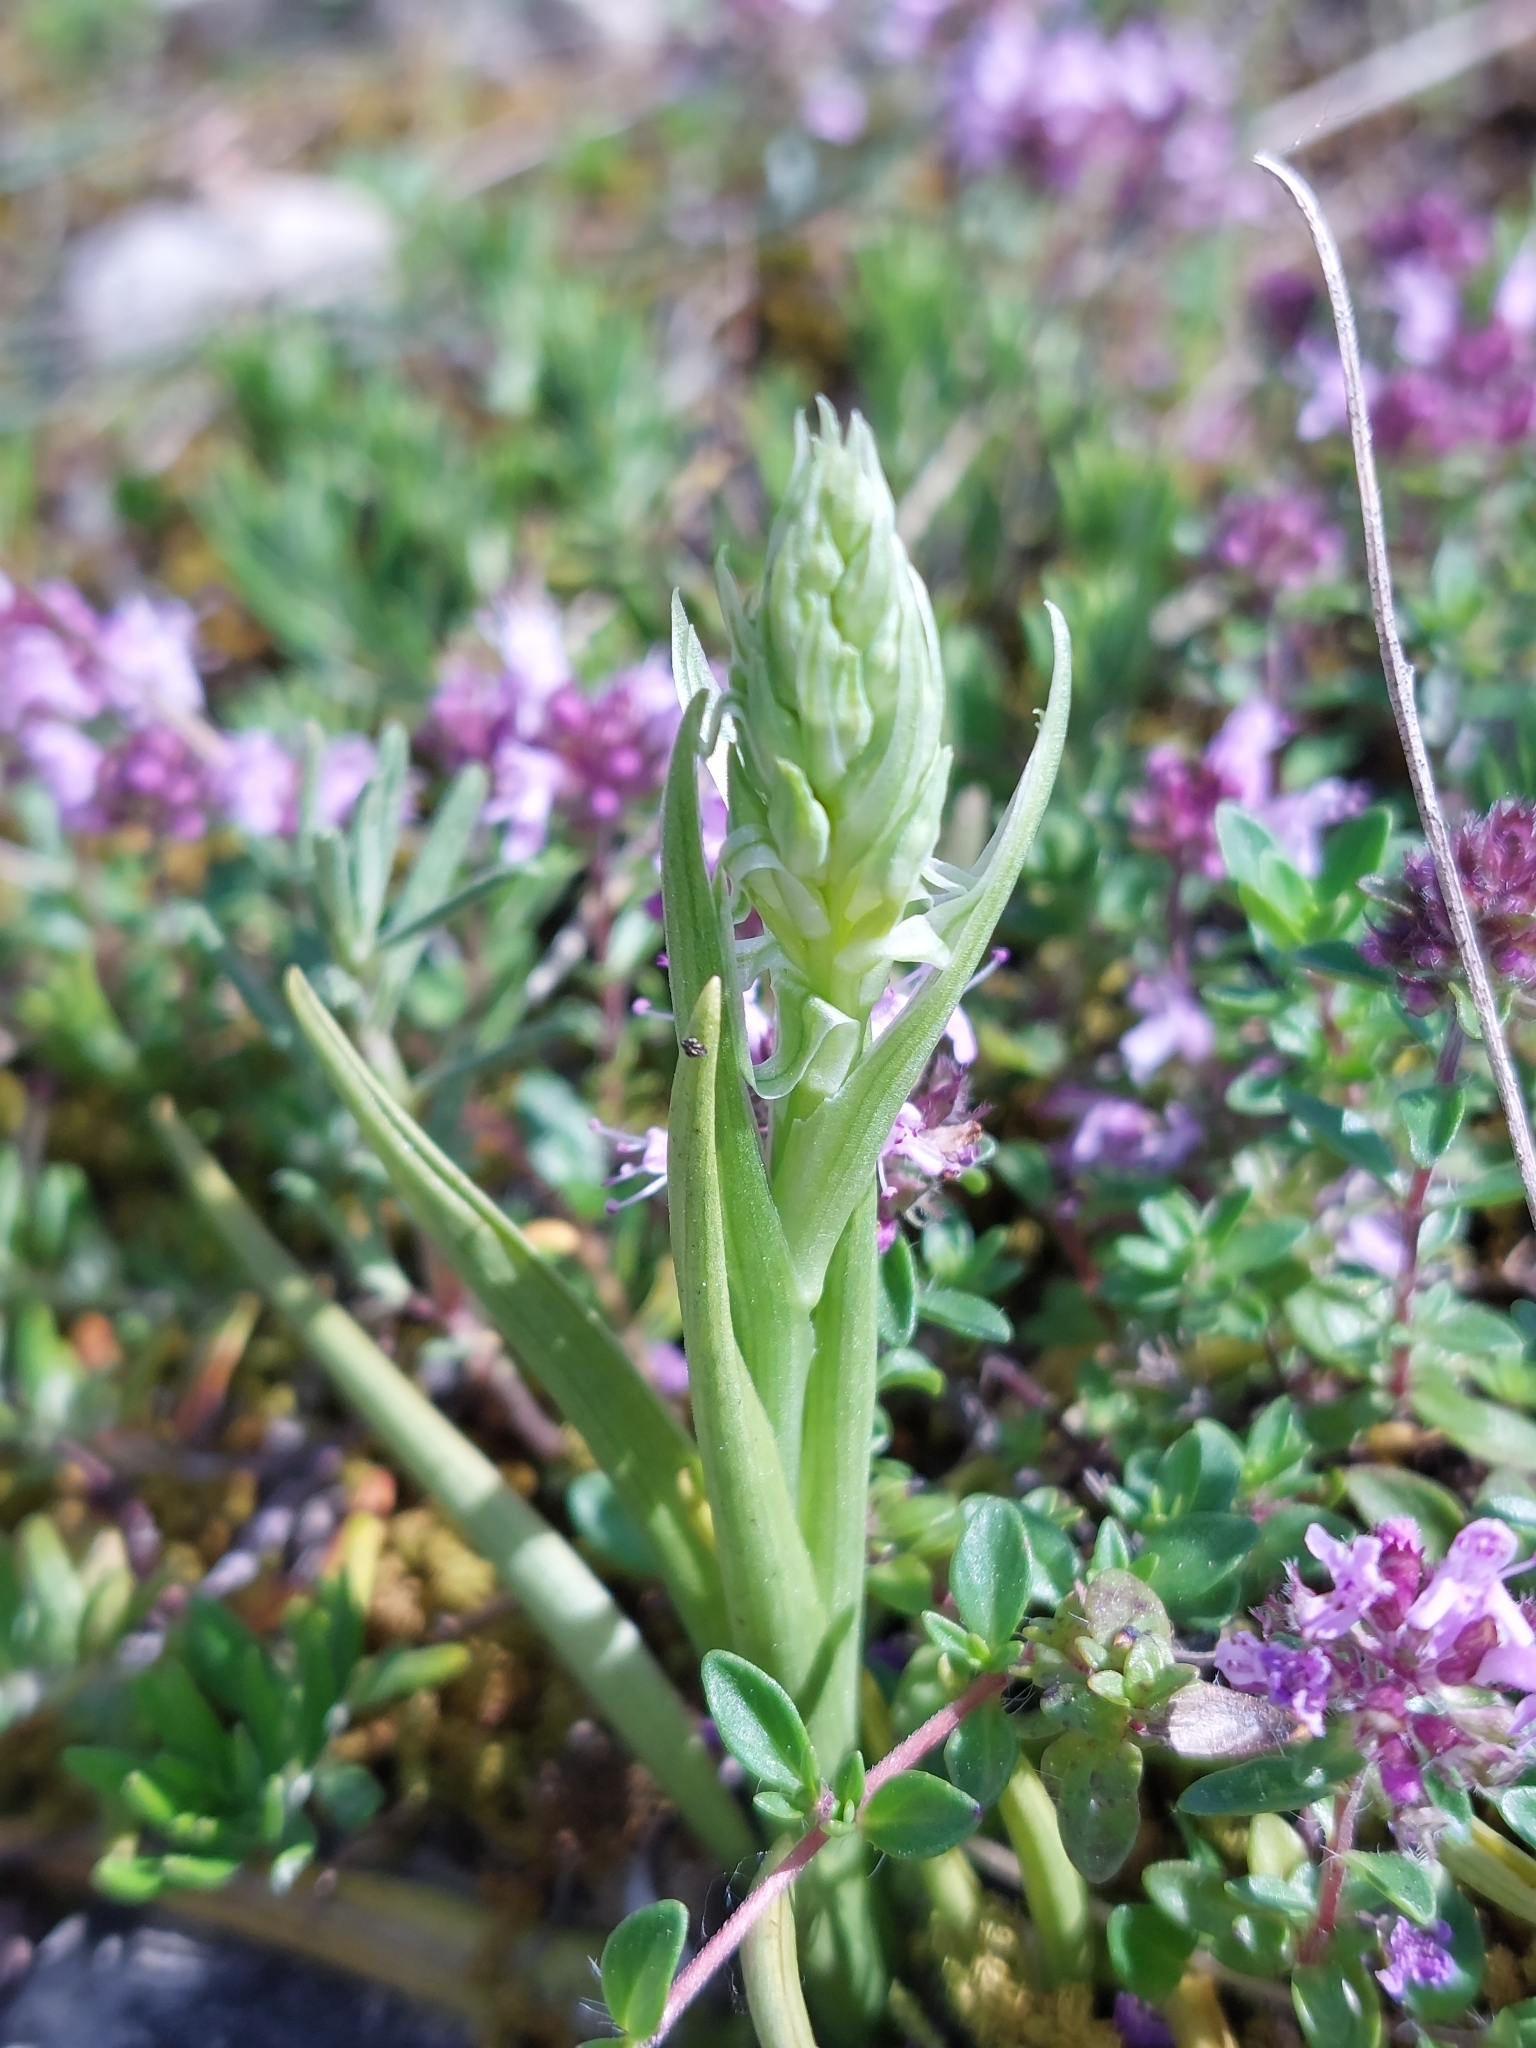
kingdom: Plantae
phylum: Tracheophyta
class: Liliopsida
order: Asparagales
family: Orchidaceae
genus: Anacamptis
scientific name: Anacamptis coriophora
